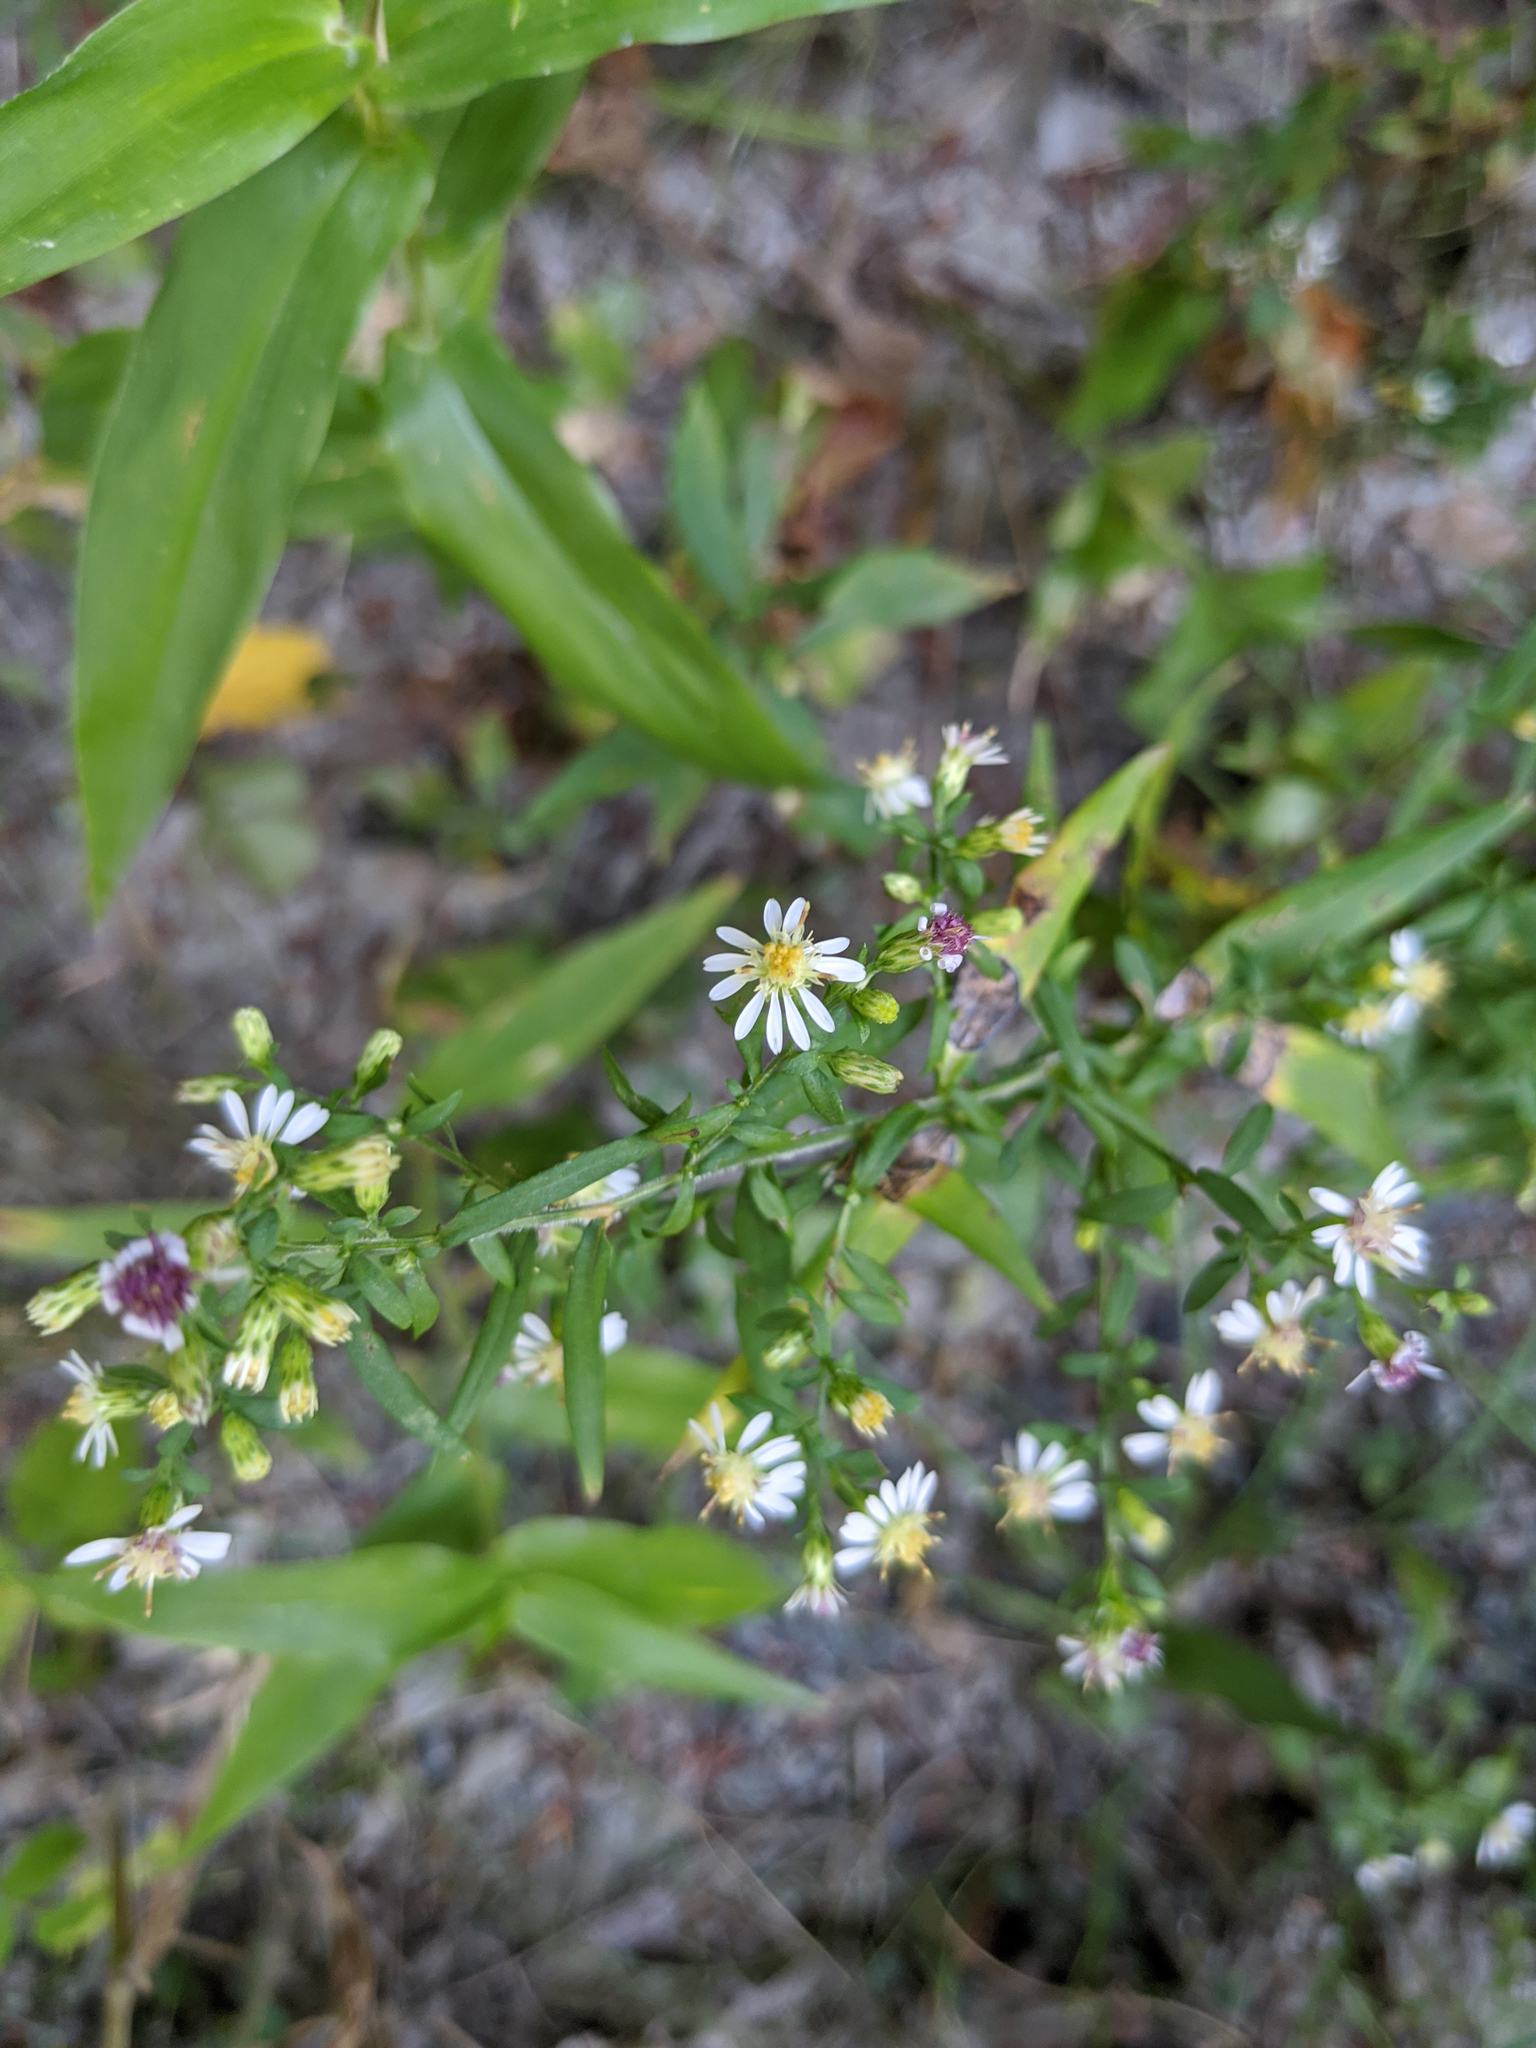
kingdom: Plantae
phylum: Tracheophyta
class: Magnoliopsida
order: Asterales
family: Asteraceae
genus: Symphyotrichum
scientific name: Symphyotrichum lateriflorum
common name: Calico aster
